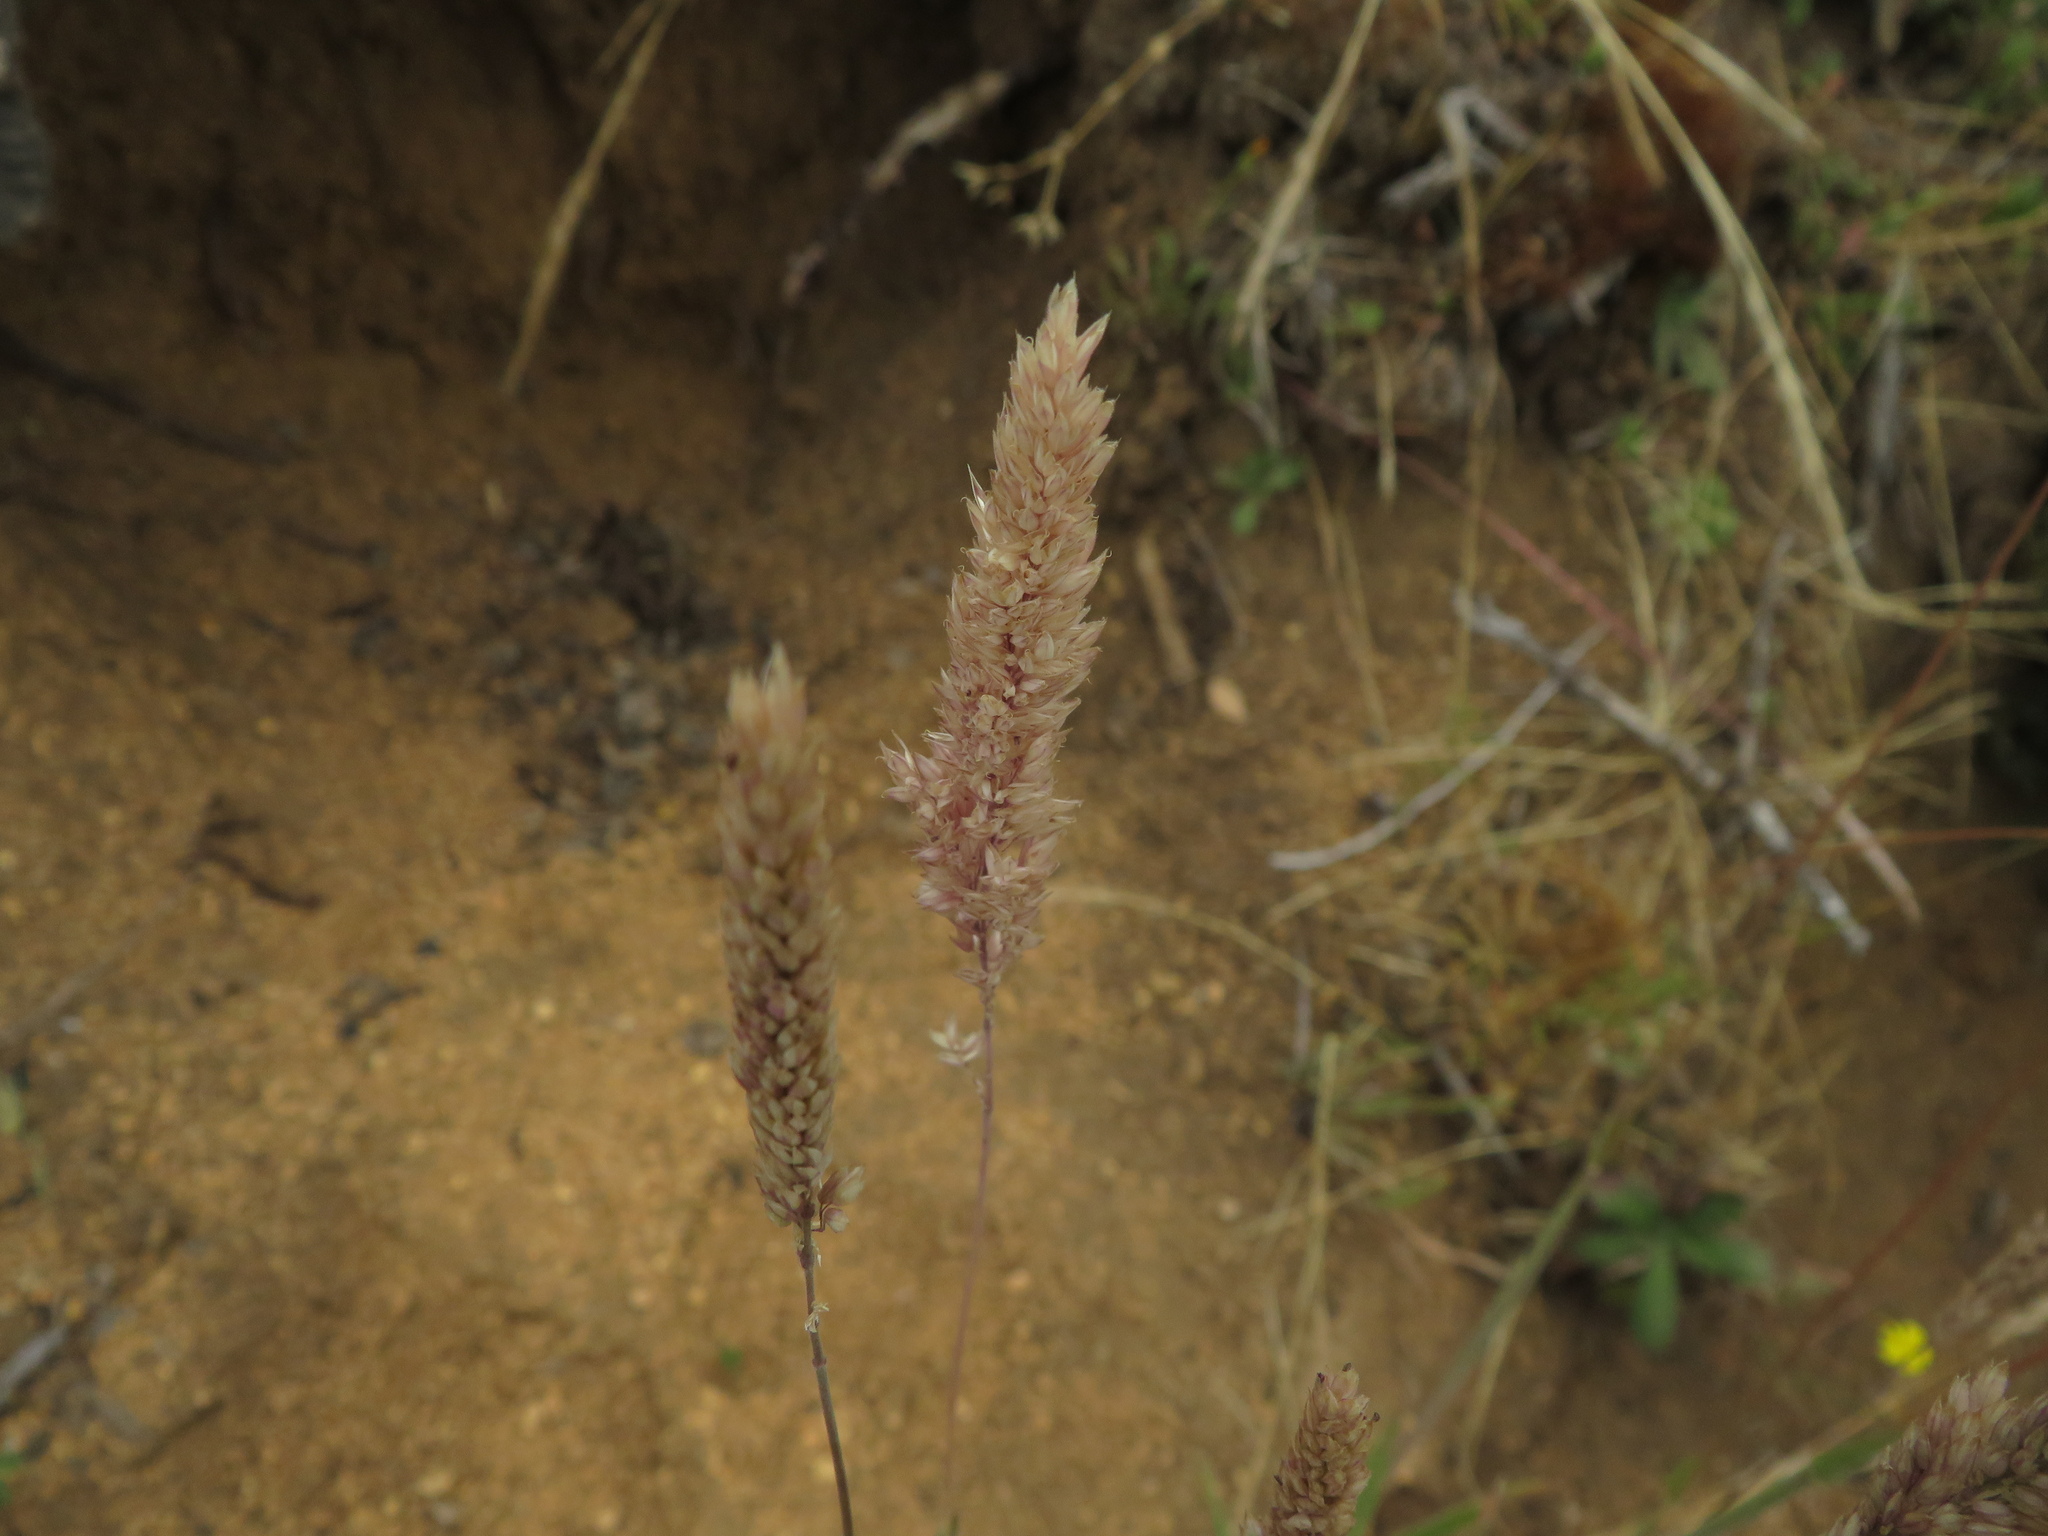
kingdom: Plantae
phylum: Tracheophyta
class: Liliopsida
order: Poales
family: Poaceae
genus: Holcus
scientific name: Holcus lanatus
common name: Yorkshire-fog
